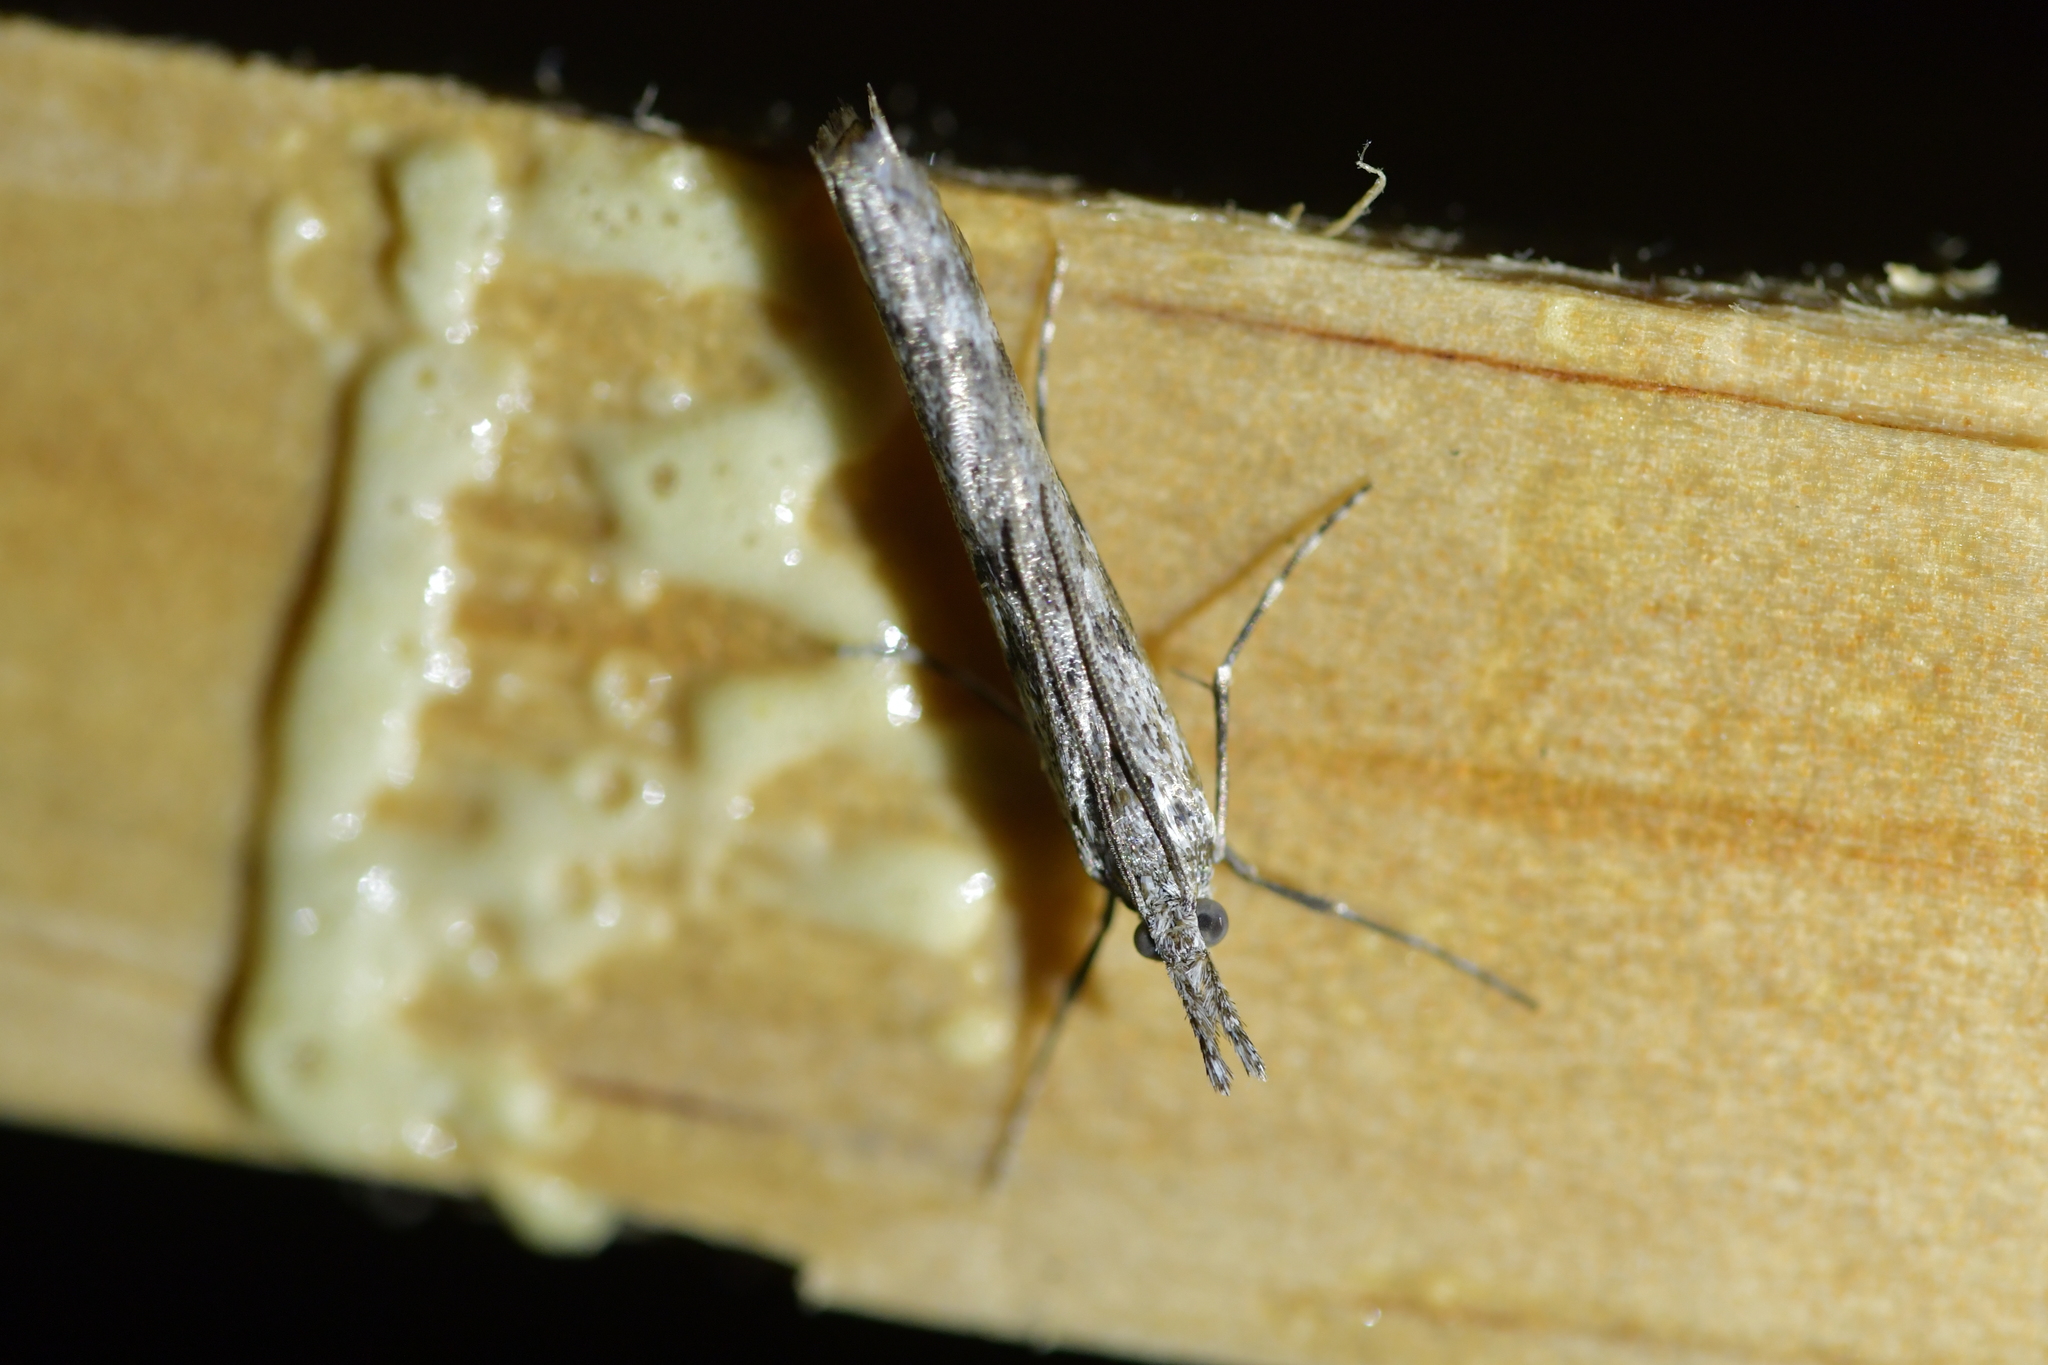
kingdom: Animalia
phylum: Arthropoda
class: Insecta
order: Lepidoptera
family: Crambidae
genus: Orocrambus
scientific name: Orocrambus cyclopicus
